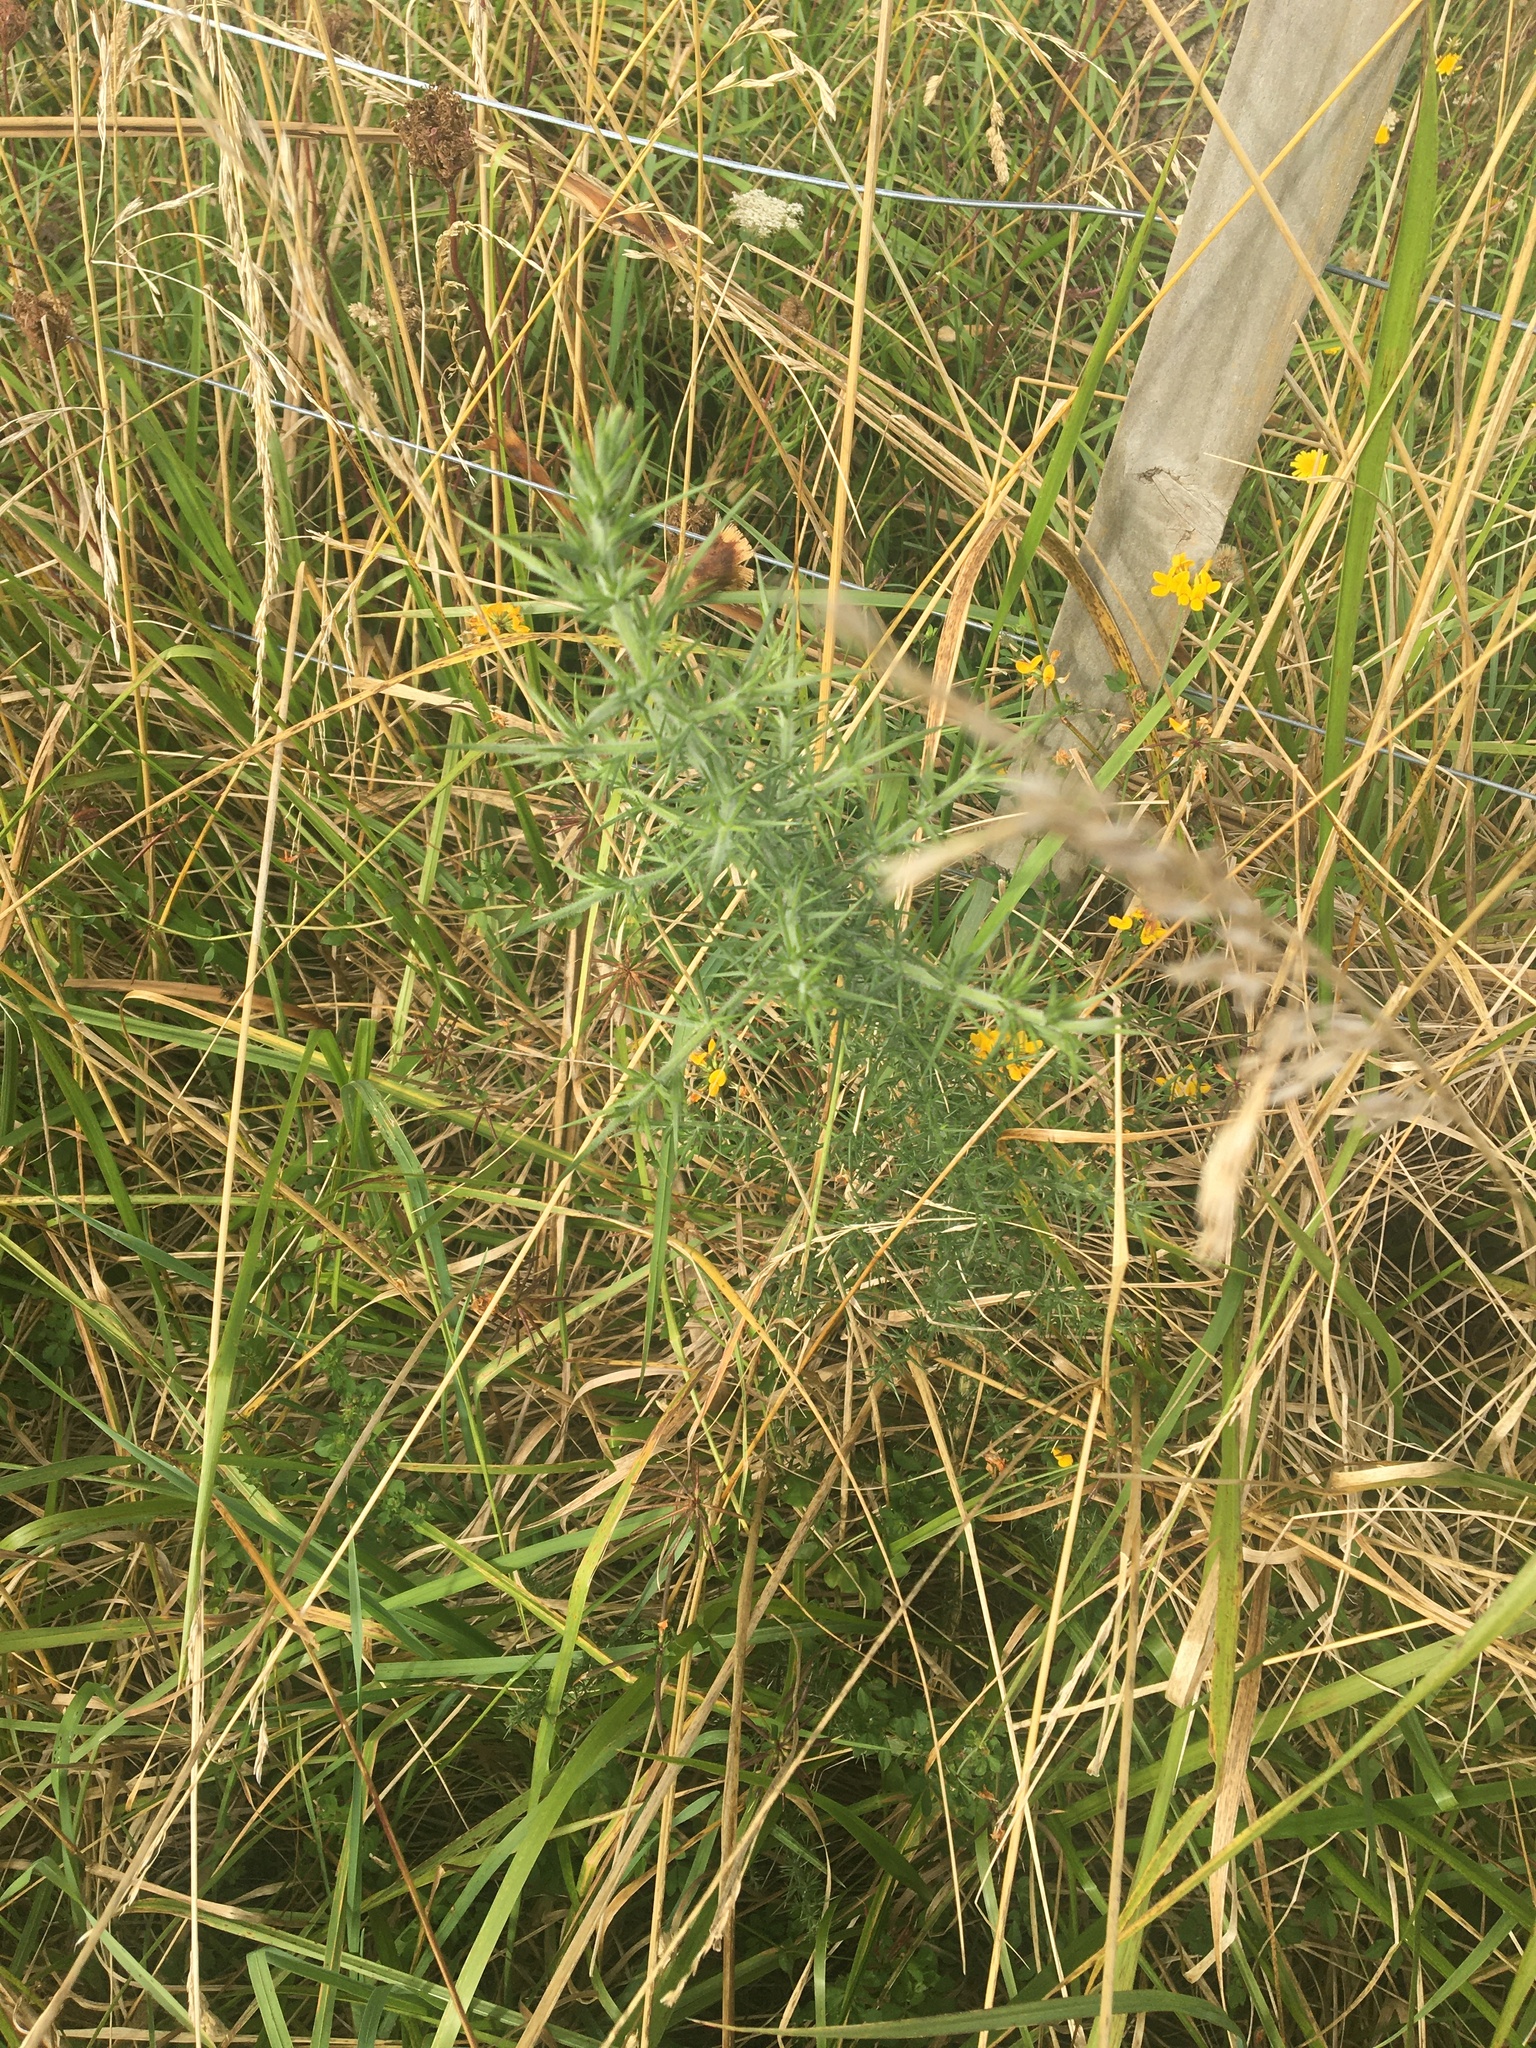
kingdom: Plantae
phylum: Tracheophyta
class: Magnoliopsida
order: Fabales
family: Fabaceae
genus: Ulex
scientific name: Ulex europaeus
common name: Common gorse
